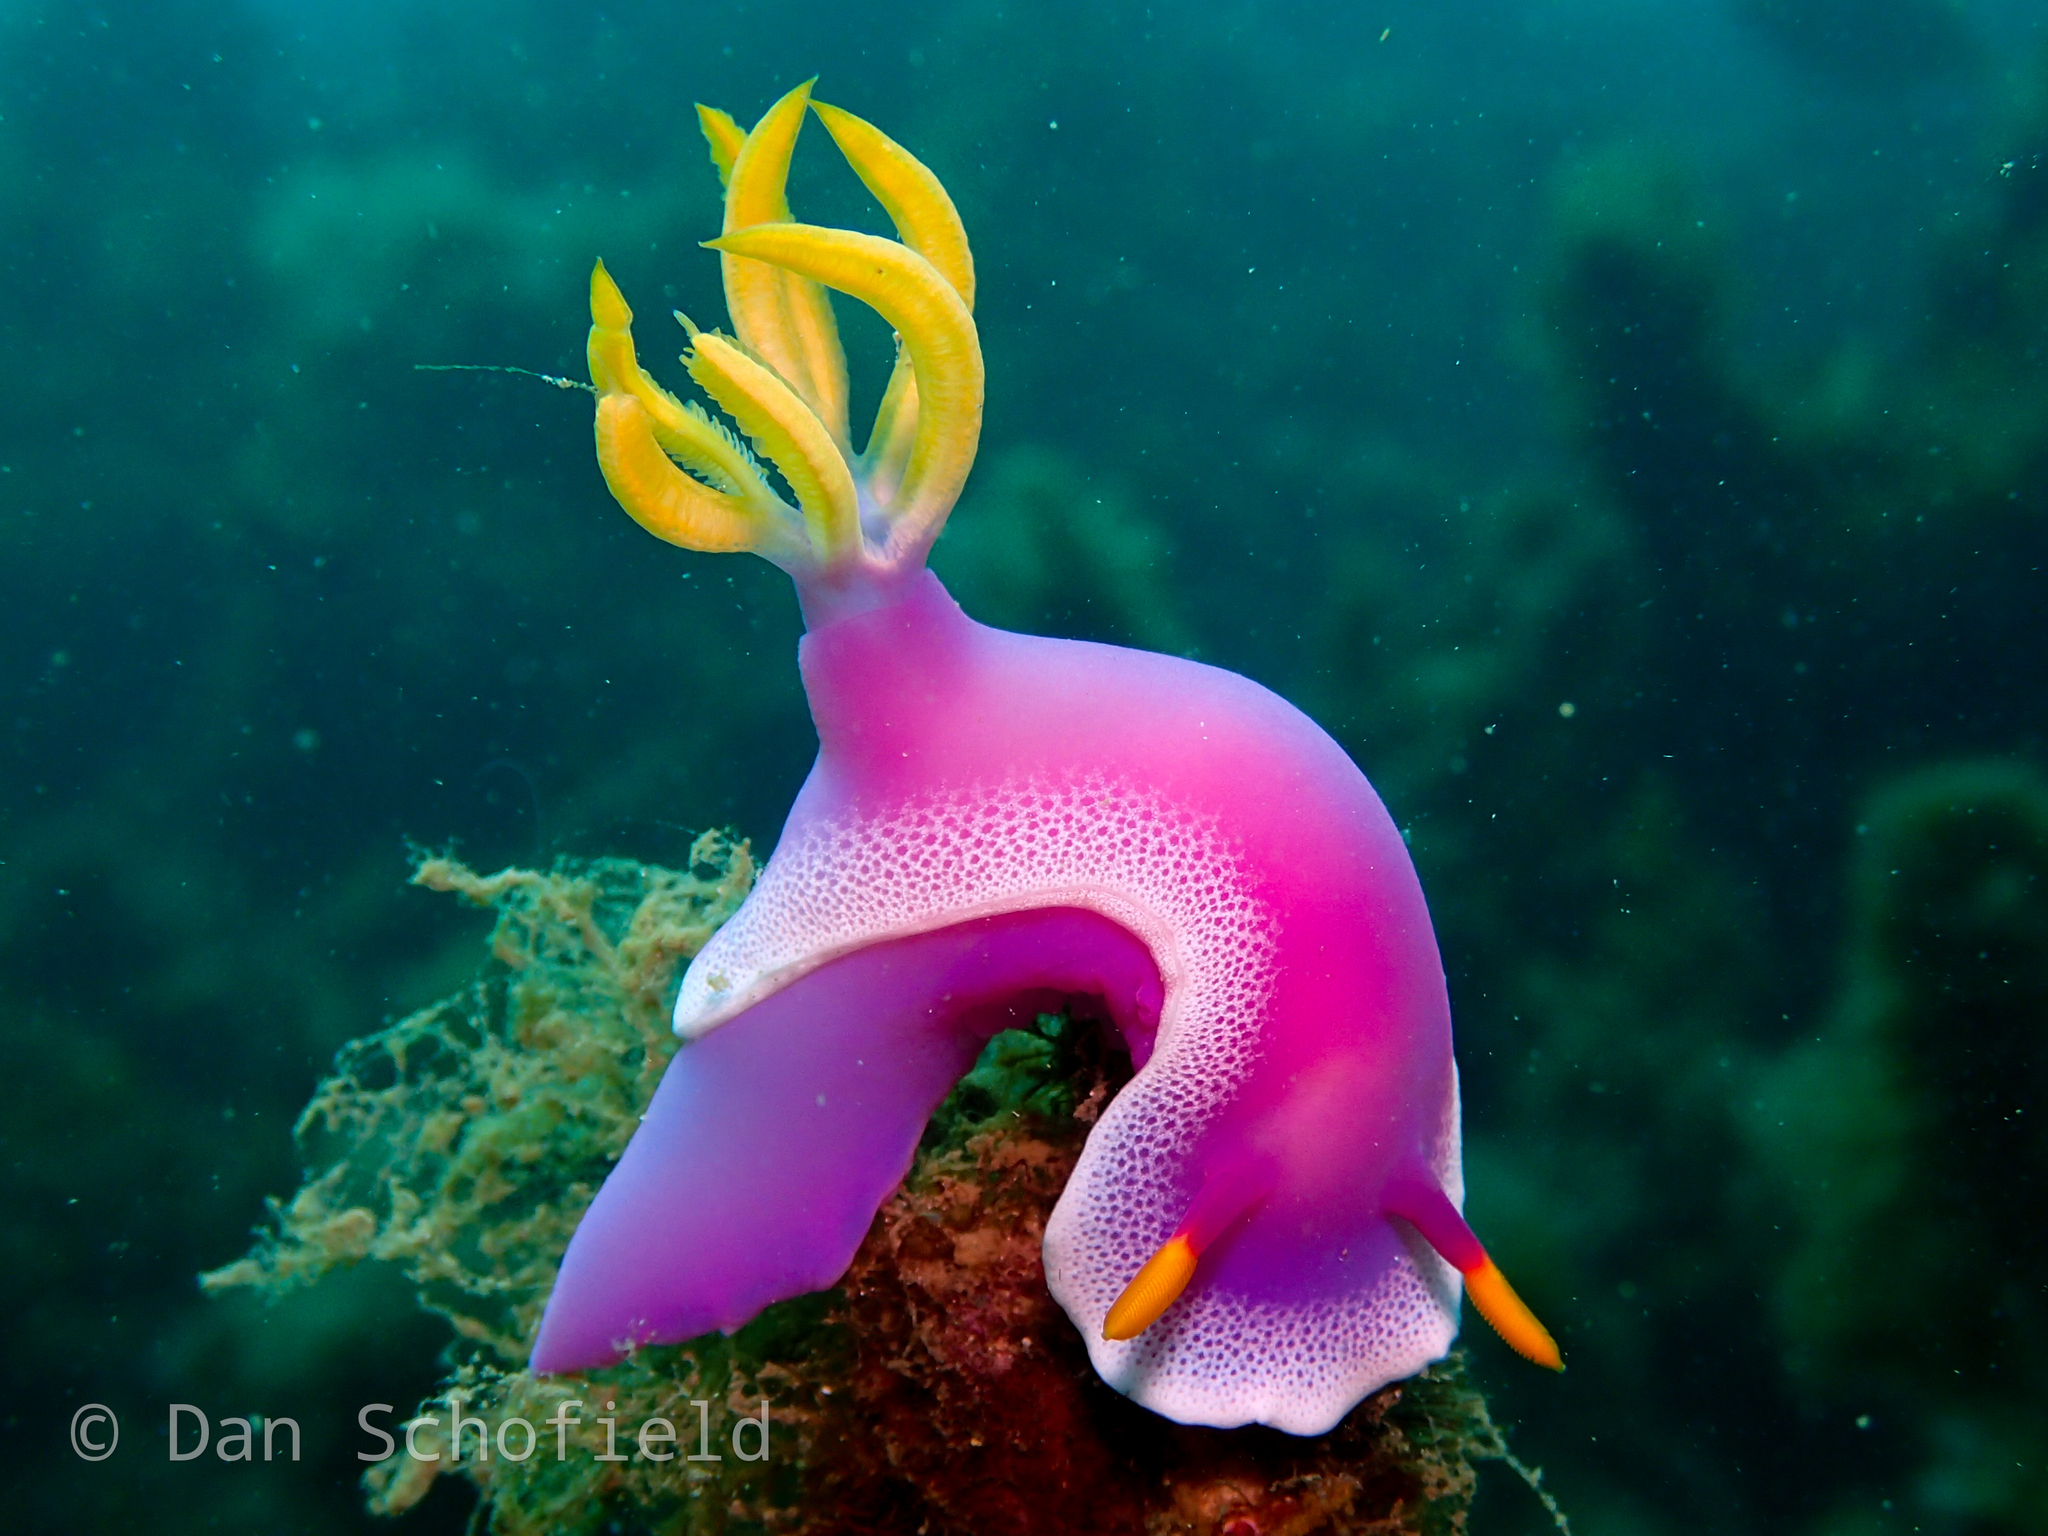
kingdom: Animalia
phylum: Mollusca
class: Gastropoda
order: Nudibranchia
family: Chromodorididae
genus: Hypselodoris
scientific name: Hypselodoris apolegma
